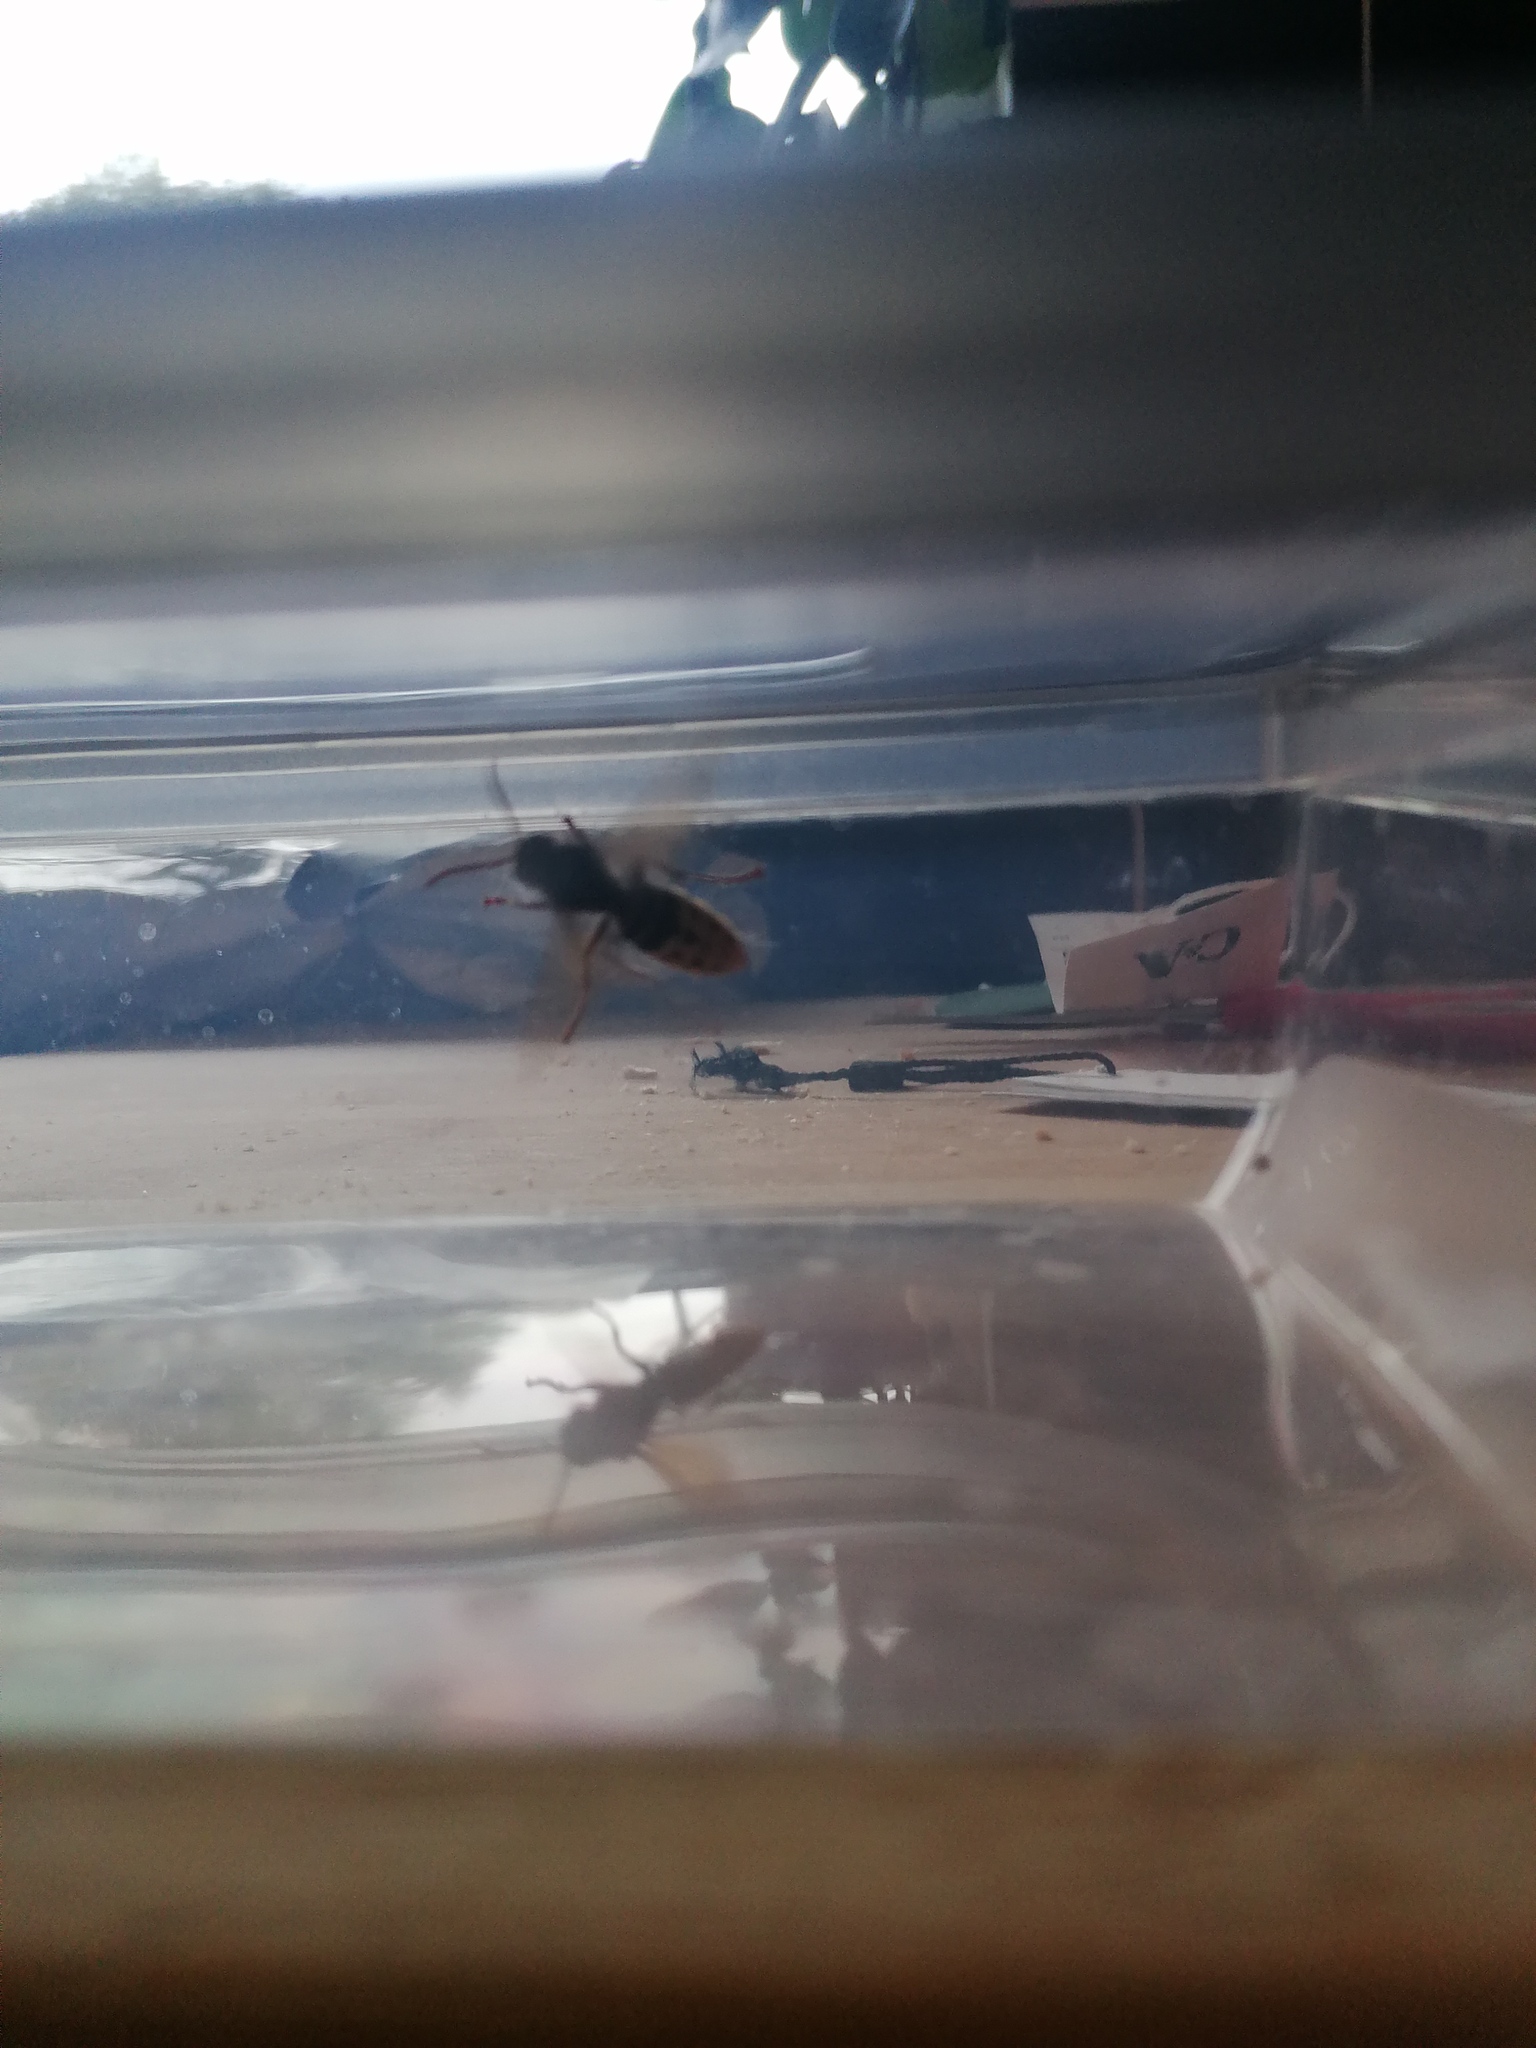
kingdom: Animalia
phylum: Arthropoda
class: Insecta
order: Hymenoptera
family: Vespidae
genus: Vespa
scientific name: Vespa crabro
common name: Hornet
